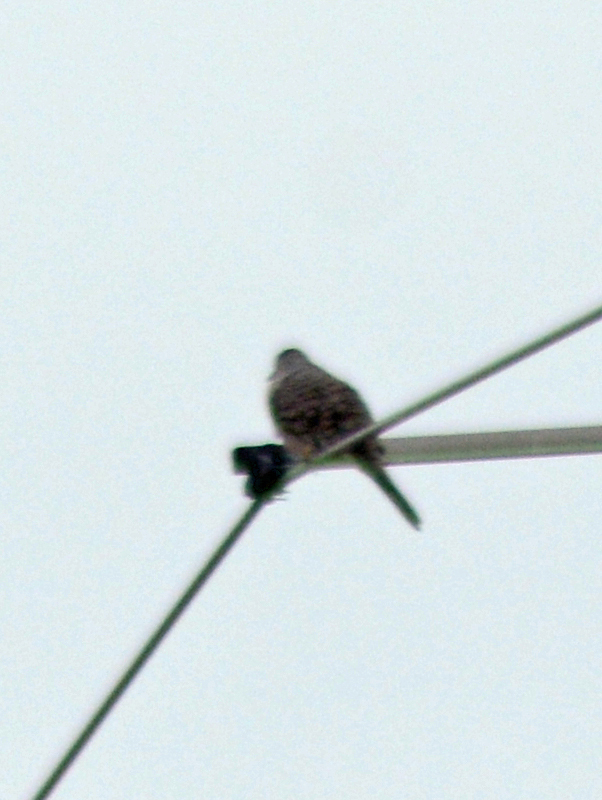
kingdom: Animalia
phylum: Chordata
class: Aves
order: Columbiformes
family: Columbidae
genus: Columbina
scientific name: Columbina inca
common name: Inca dove
